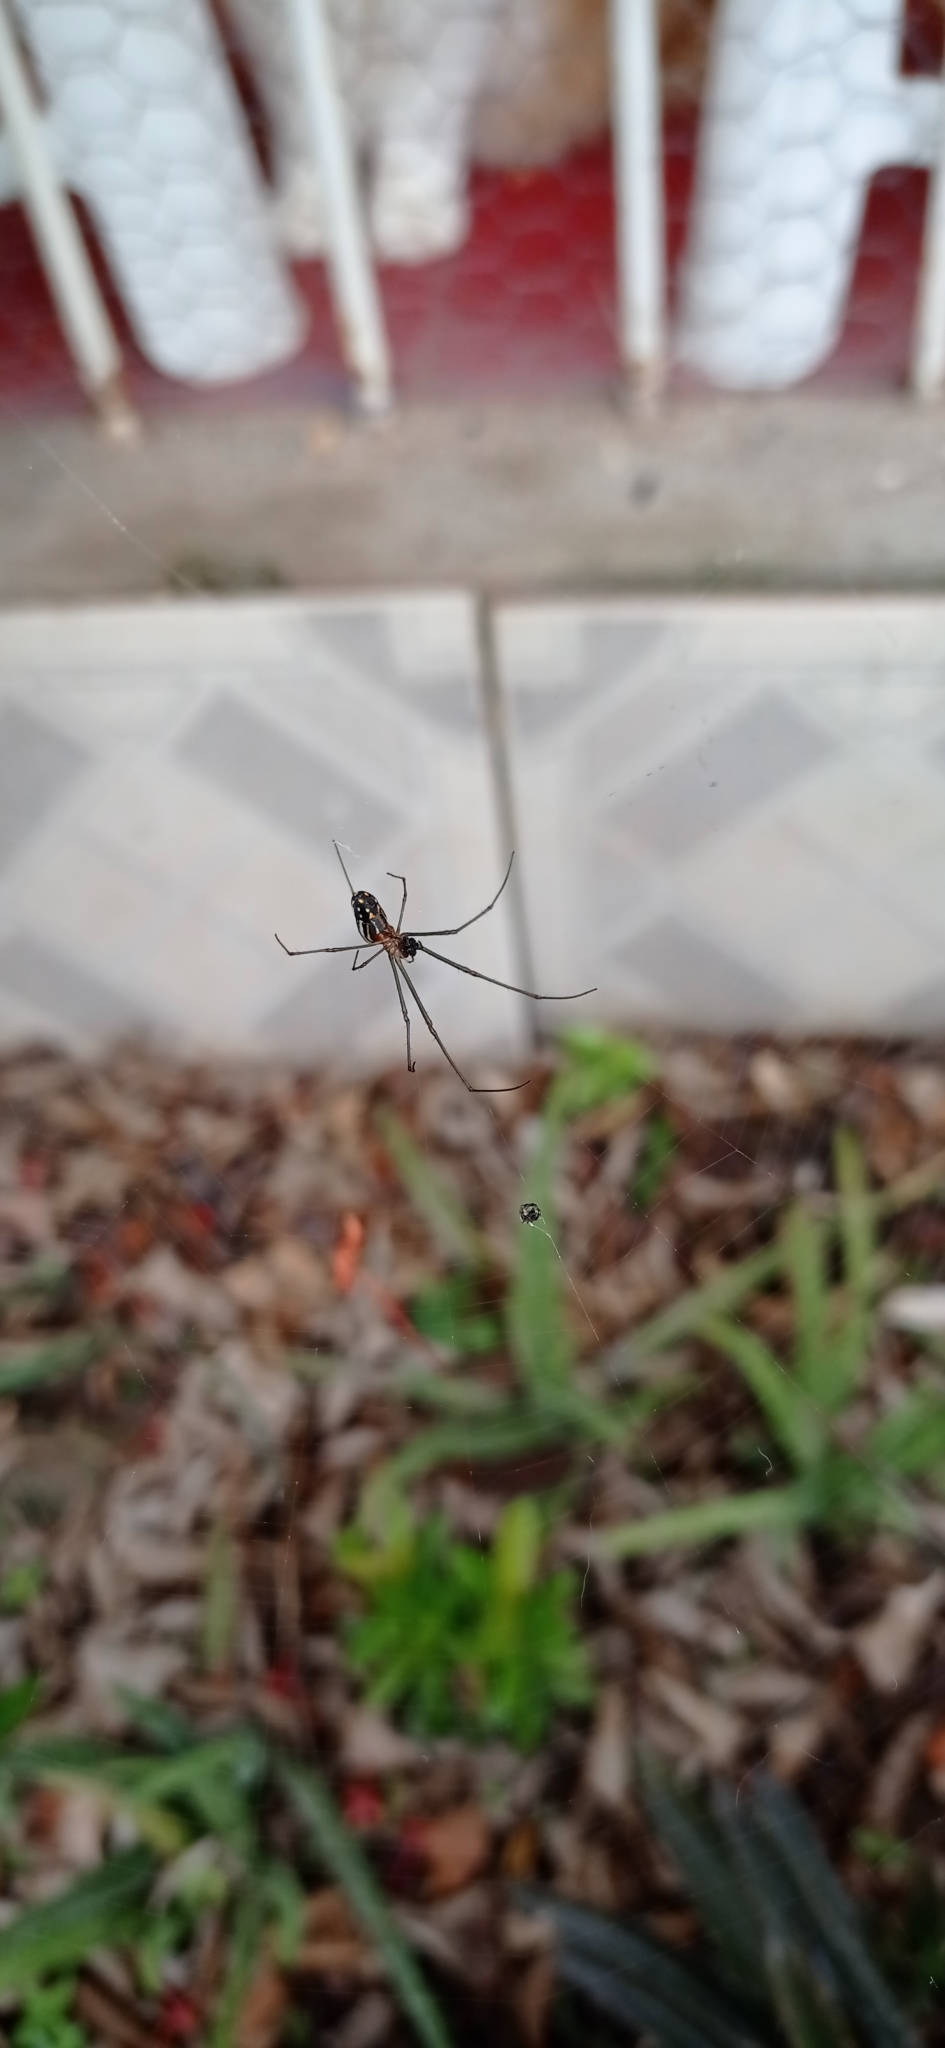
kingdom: Animalia
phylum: Arthropoda
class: Arachnida
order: Araneae
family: Tetragnathidae
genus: Leucauge
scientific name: Leucauge argyra
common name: Longjawed orb weavers
